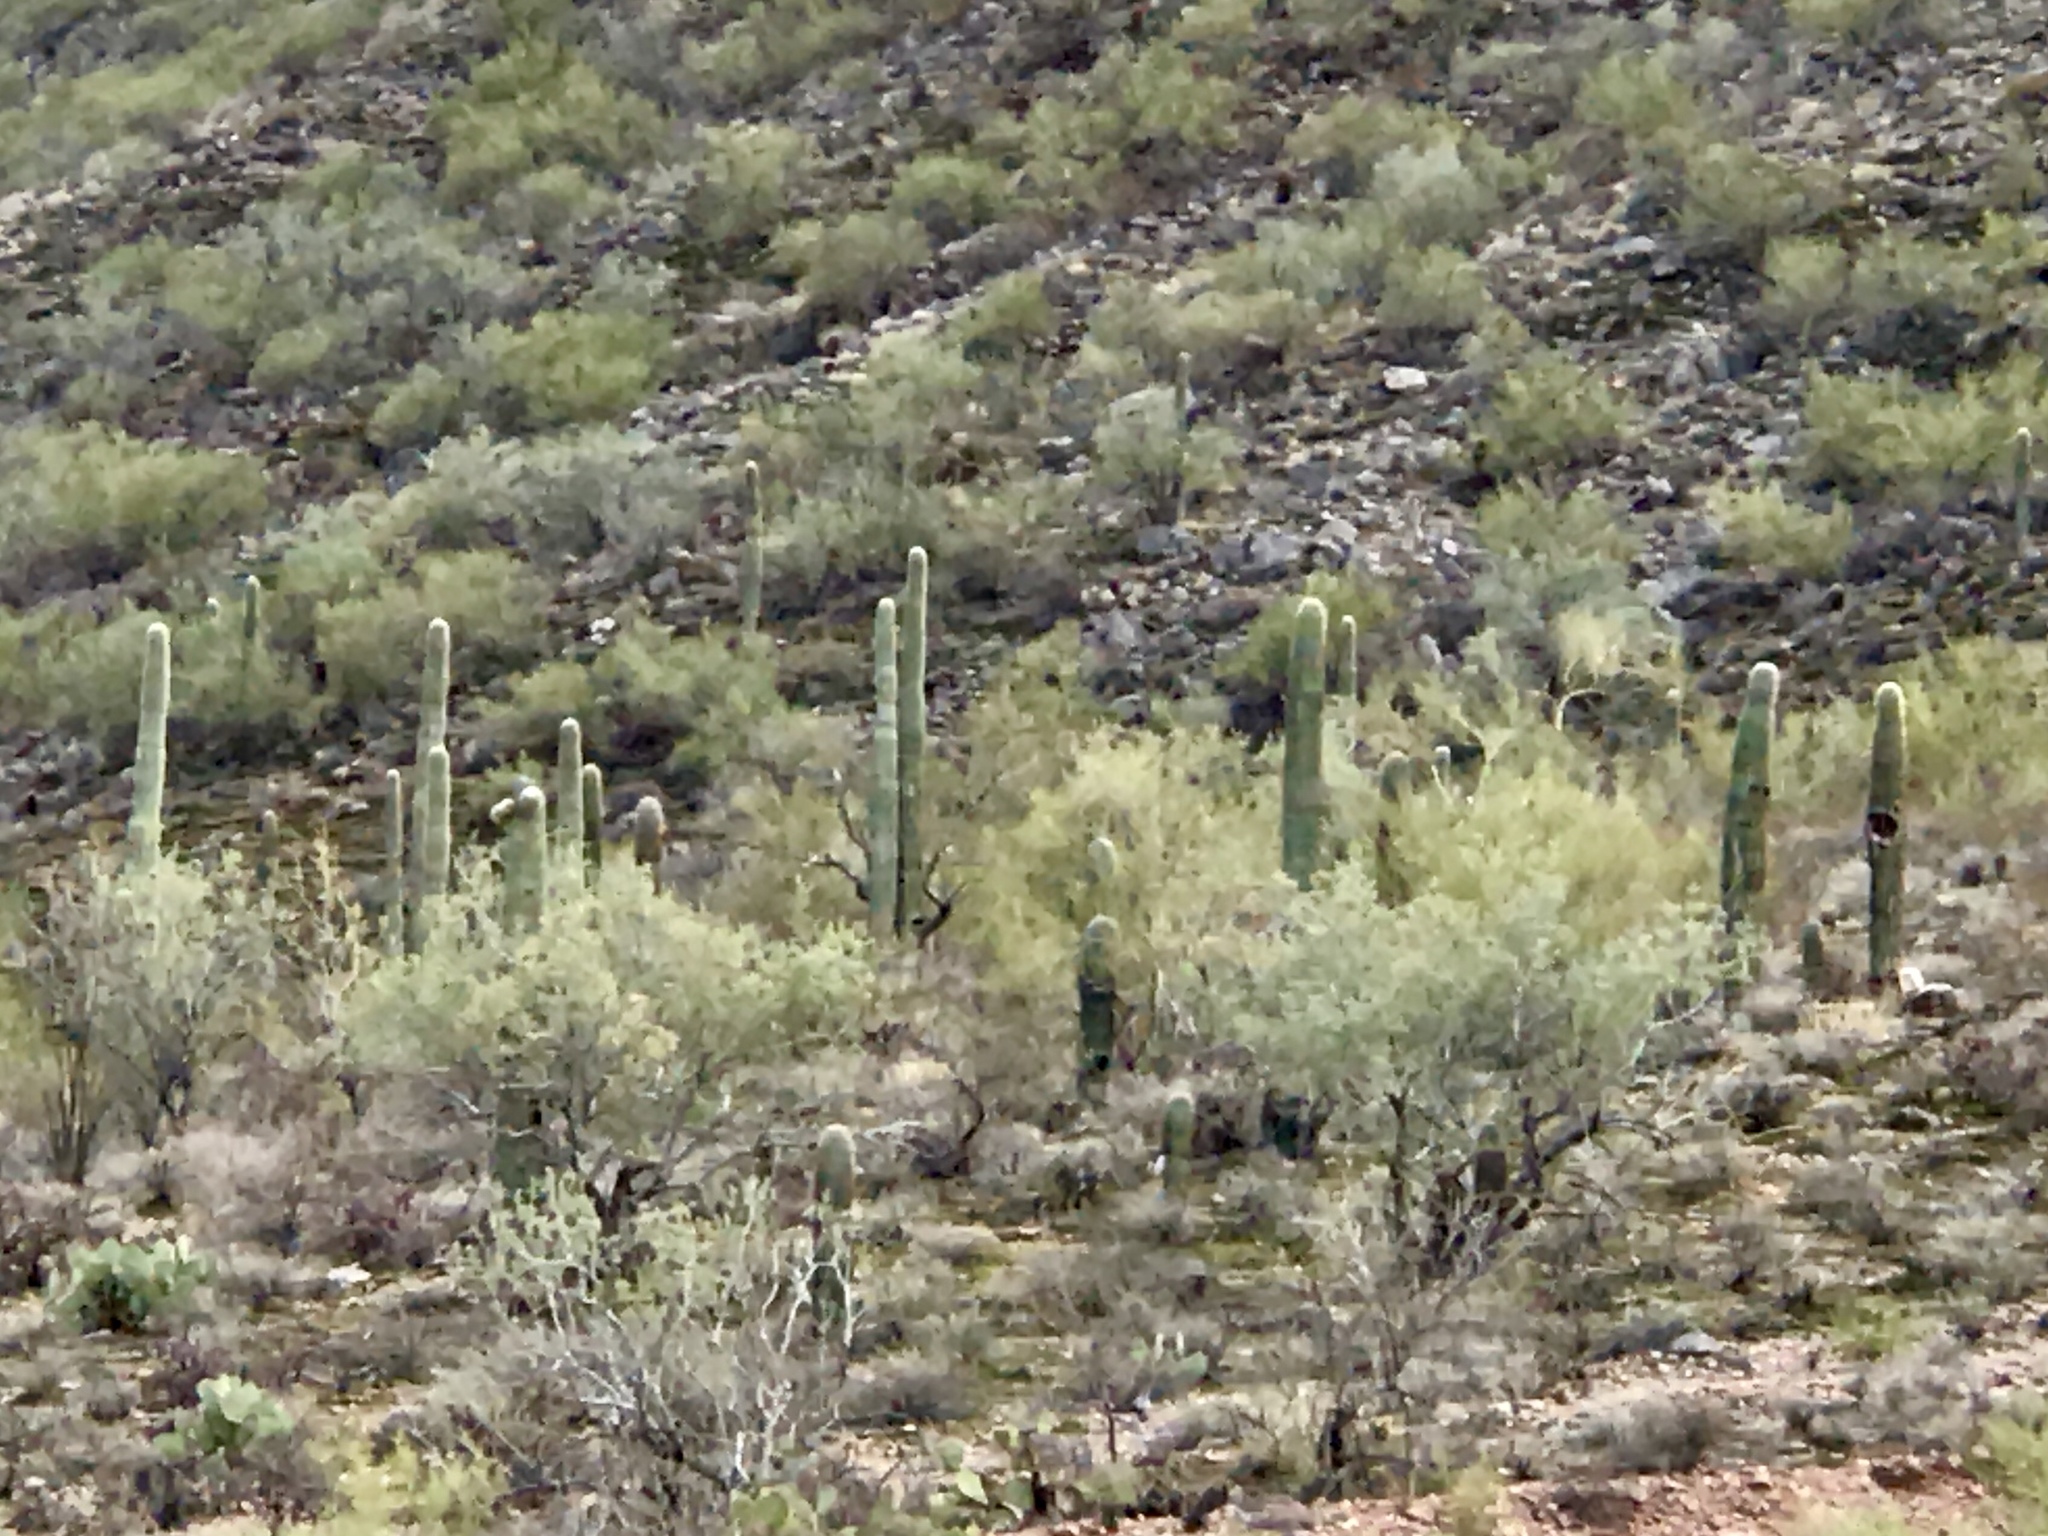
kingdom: Plantae
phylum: Tracheophyta
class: Magnoliopsida
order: Caryophyllales
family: Cactaceae
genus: Carnegiea
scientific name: Carnegiea gigantea
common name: Saguaro
